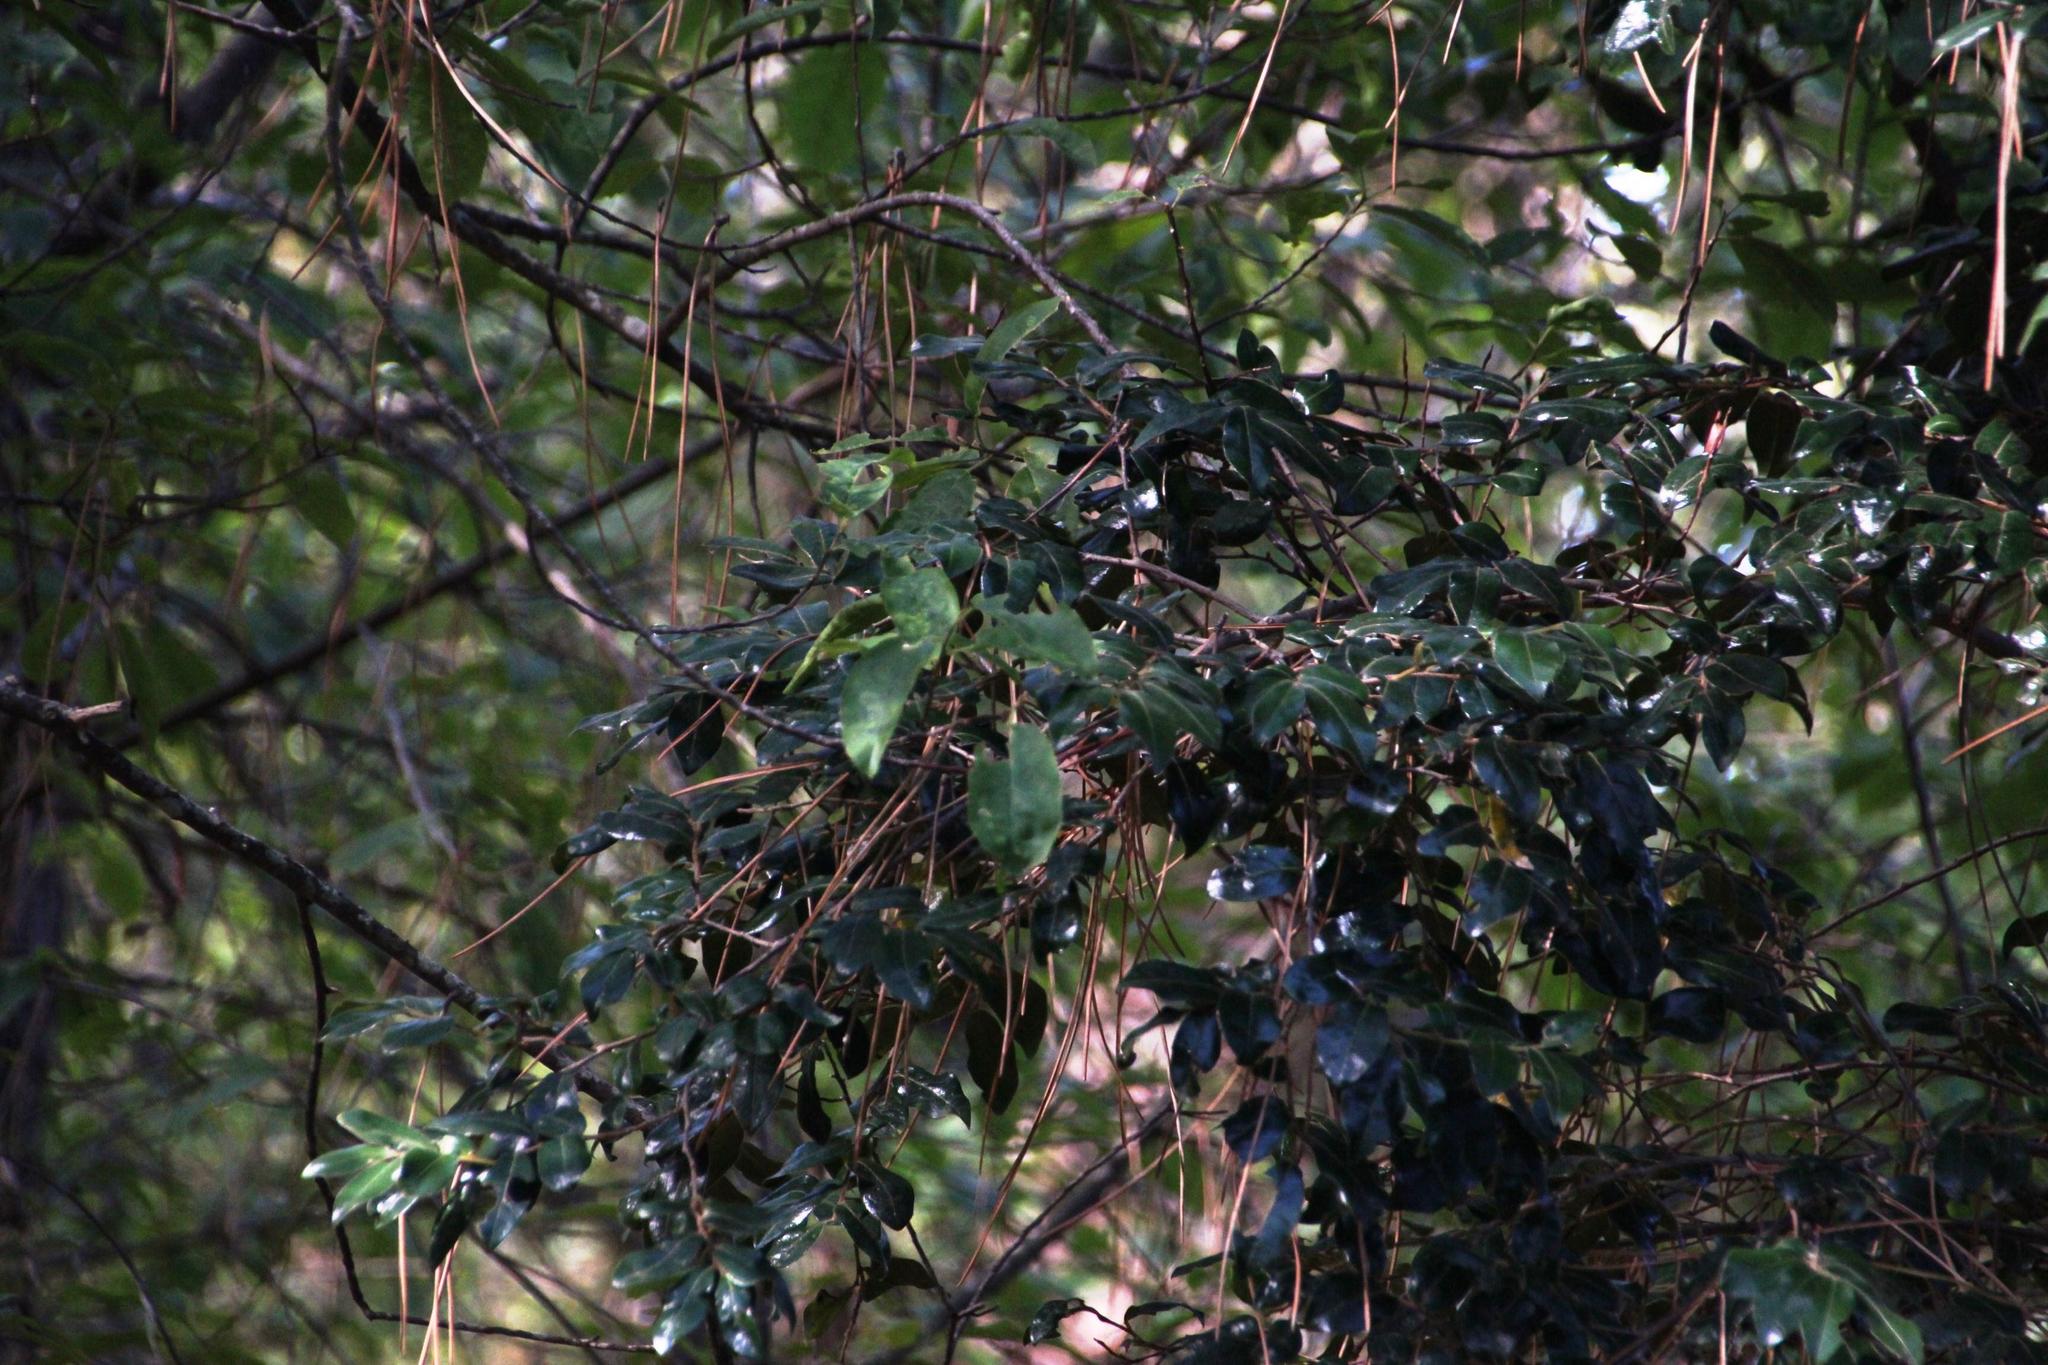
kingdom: Plantae
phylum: Tracheophyta
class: Magnoliopsida
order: Ericales
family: Ebenaceae
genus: Diospyros
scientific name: Diospyros whyteana
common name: Bladder-nut
